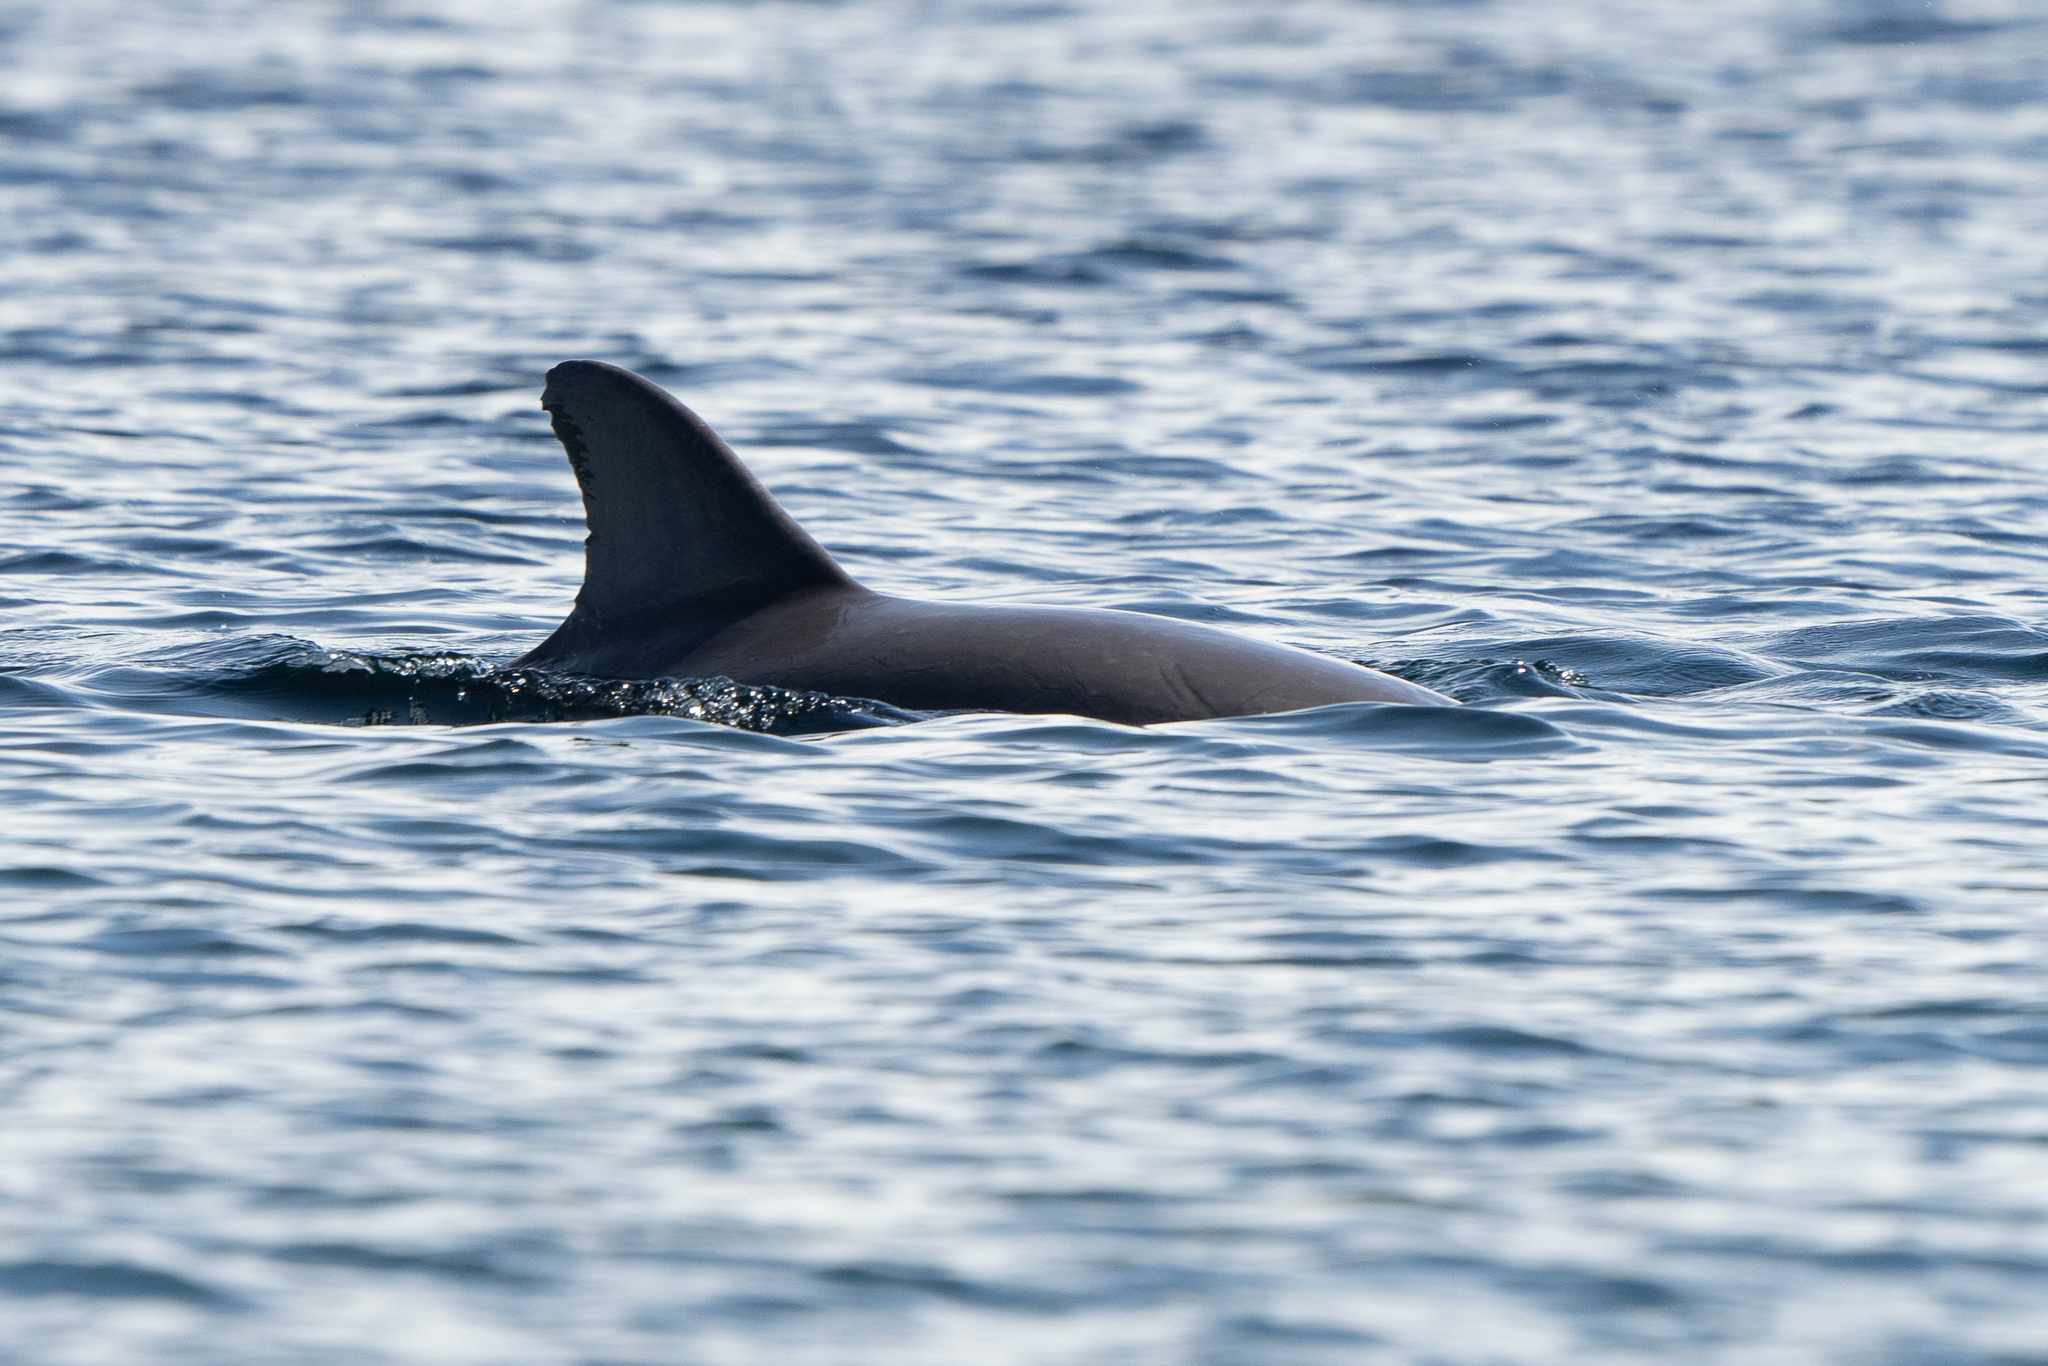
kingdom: Animalia
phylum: Chordata
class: Mammalia
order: Cetacea
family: Delphinidae
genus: Tursiops
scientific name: Tursiops truncatus
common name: Bottlenose dolphin
